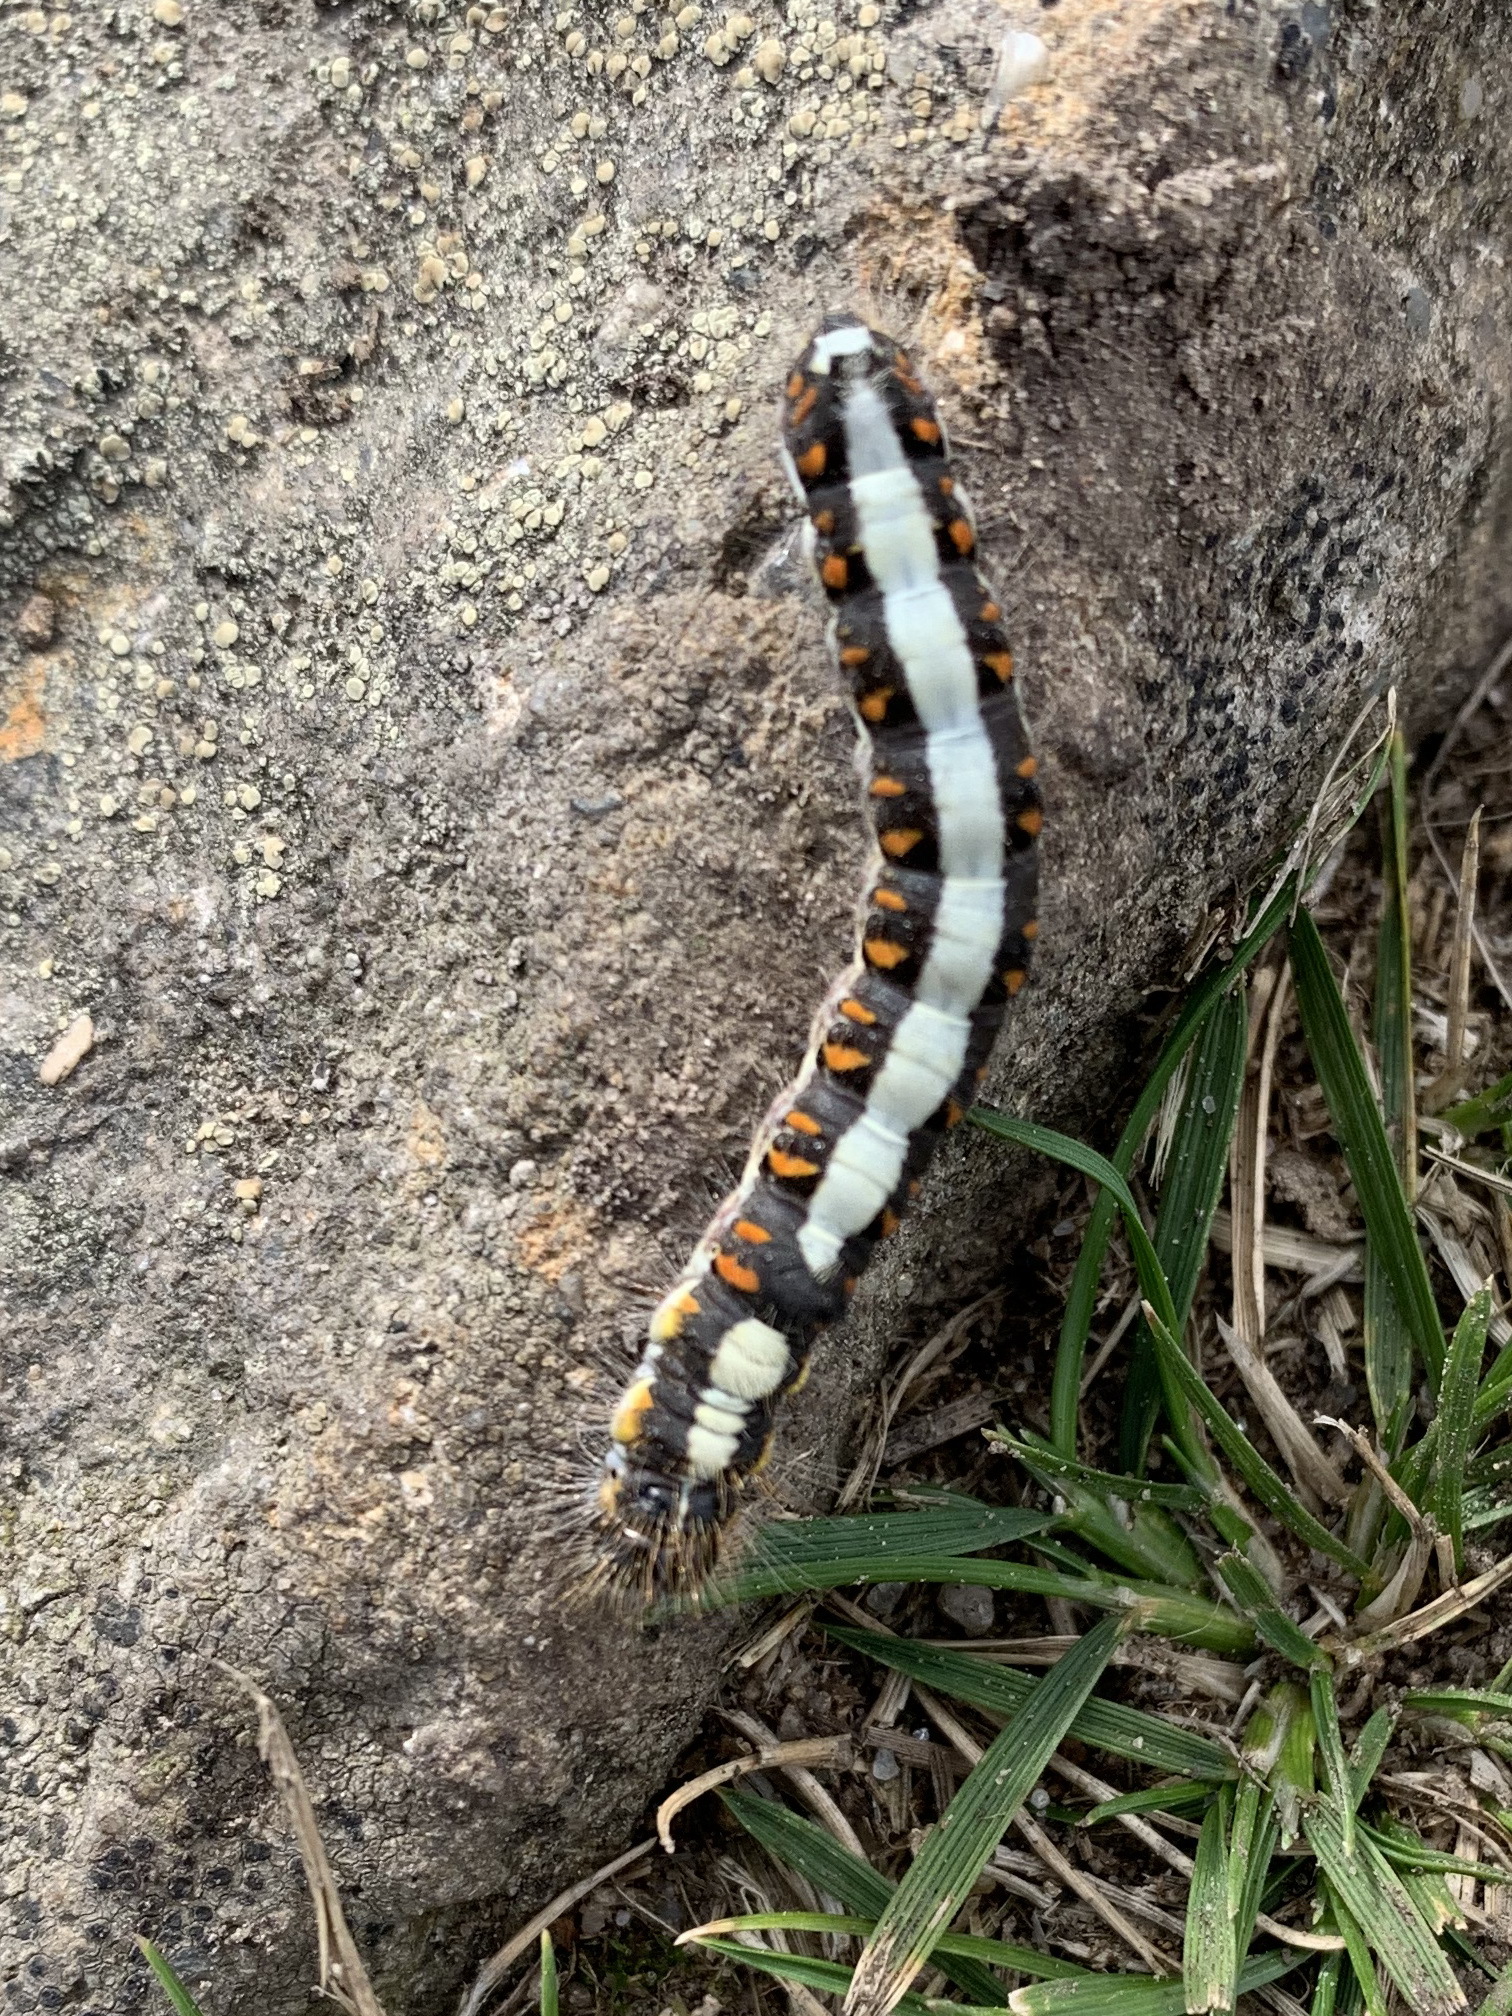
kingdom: Animalia
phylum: Arthropoda
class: Insecta
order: Lepidoptera
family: Noctuidae
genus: Acronicta
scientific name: Acronicta psi
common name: Grey dagger
